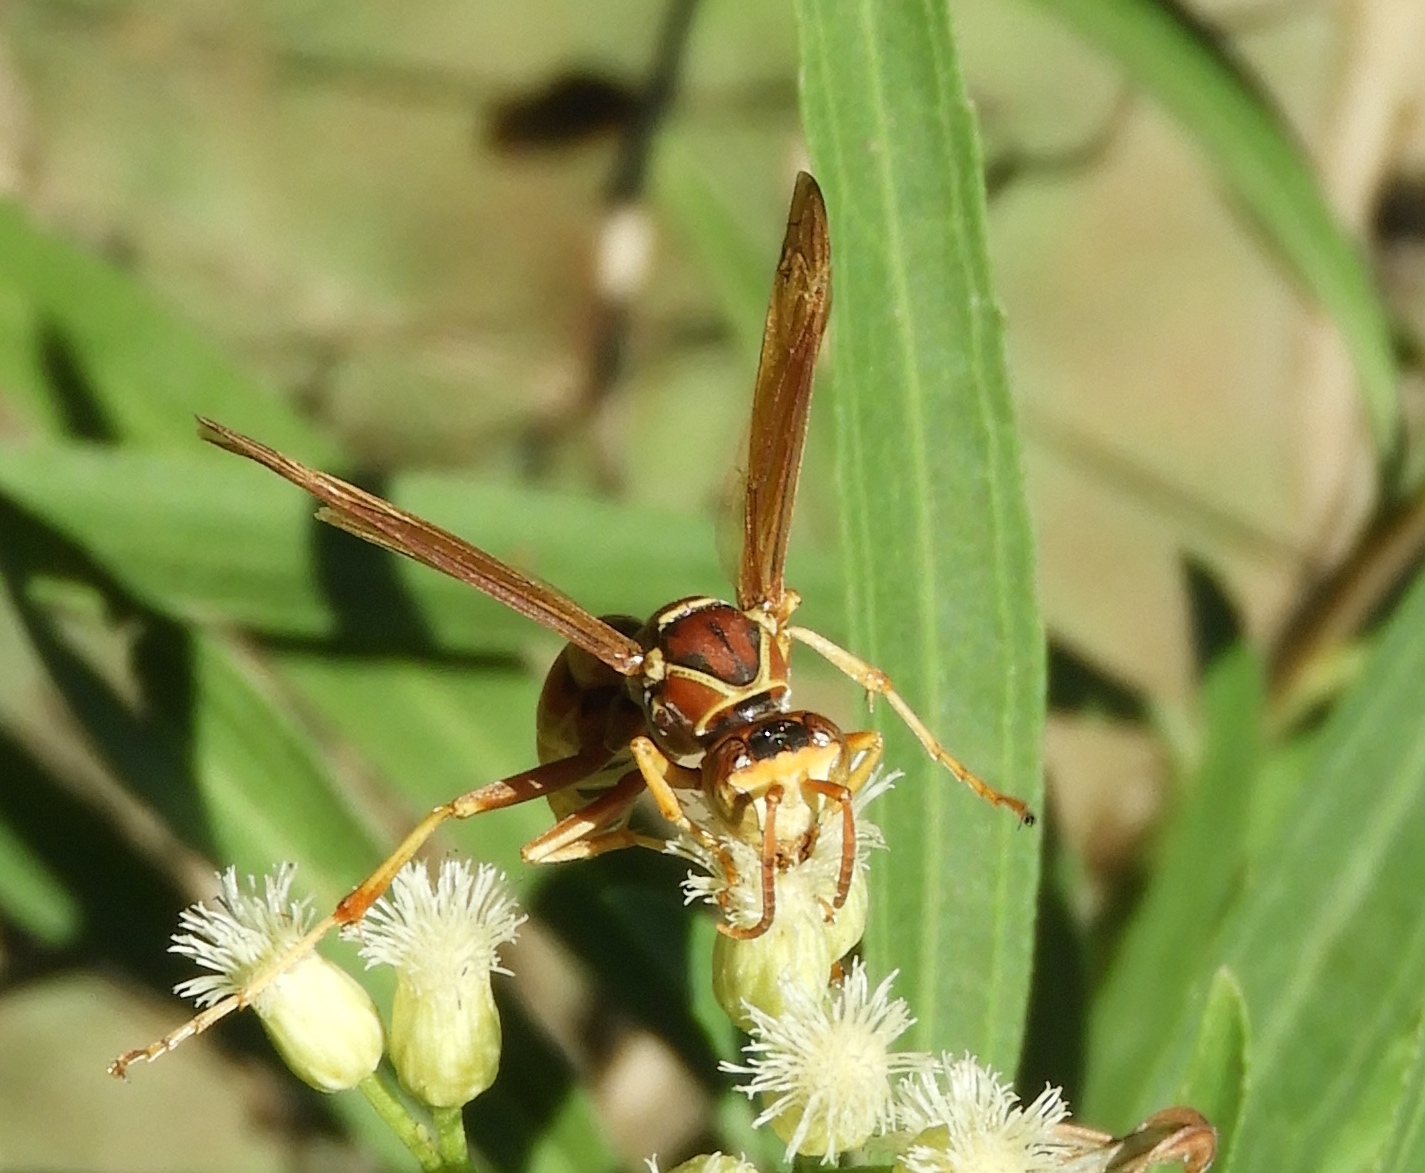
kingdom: Animalia
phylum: Arthropoda
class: Insecta
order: Hymenoptera
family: Eumenidae
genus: Polistes
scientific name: Polistes dorsalis
